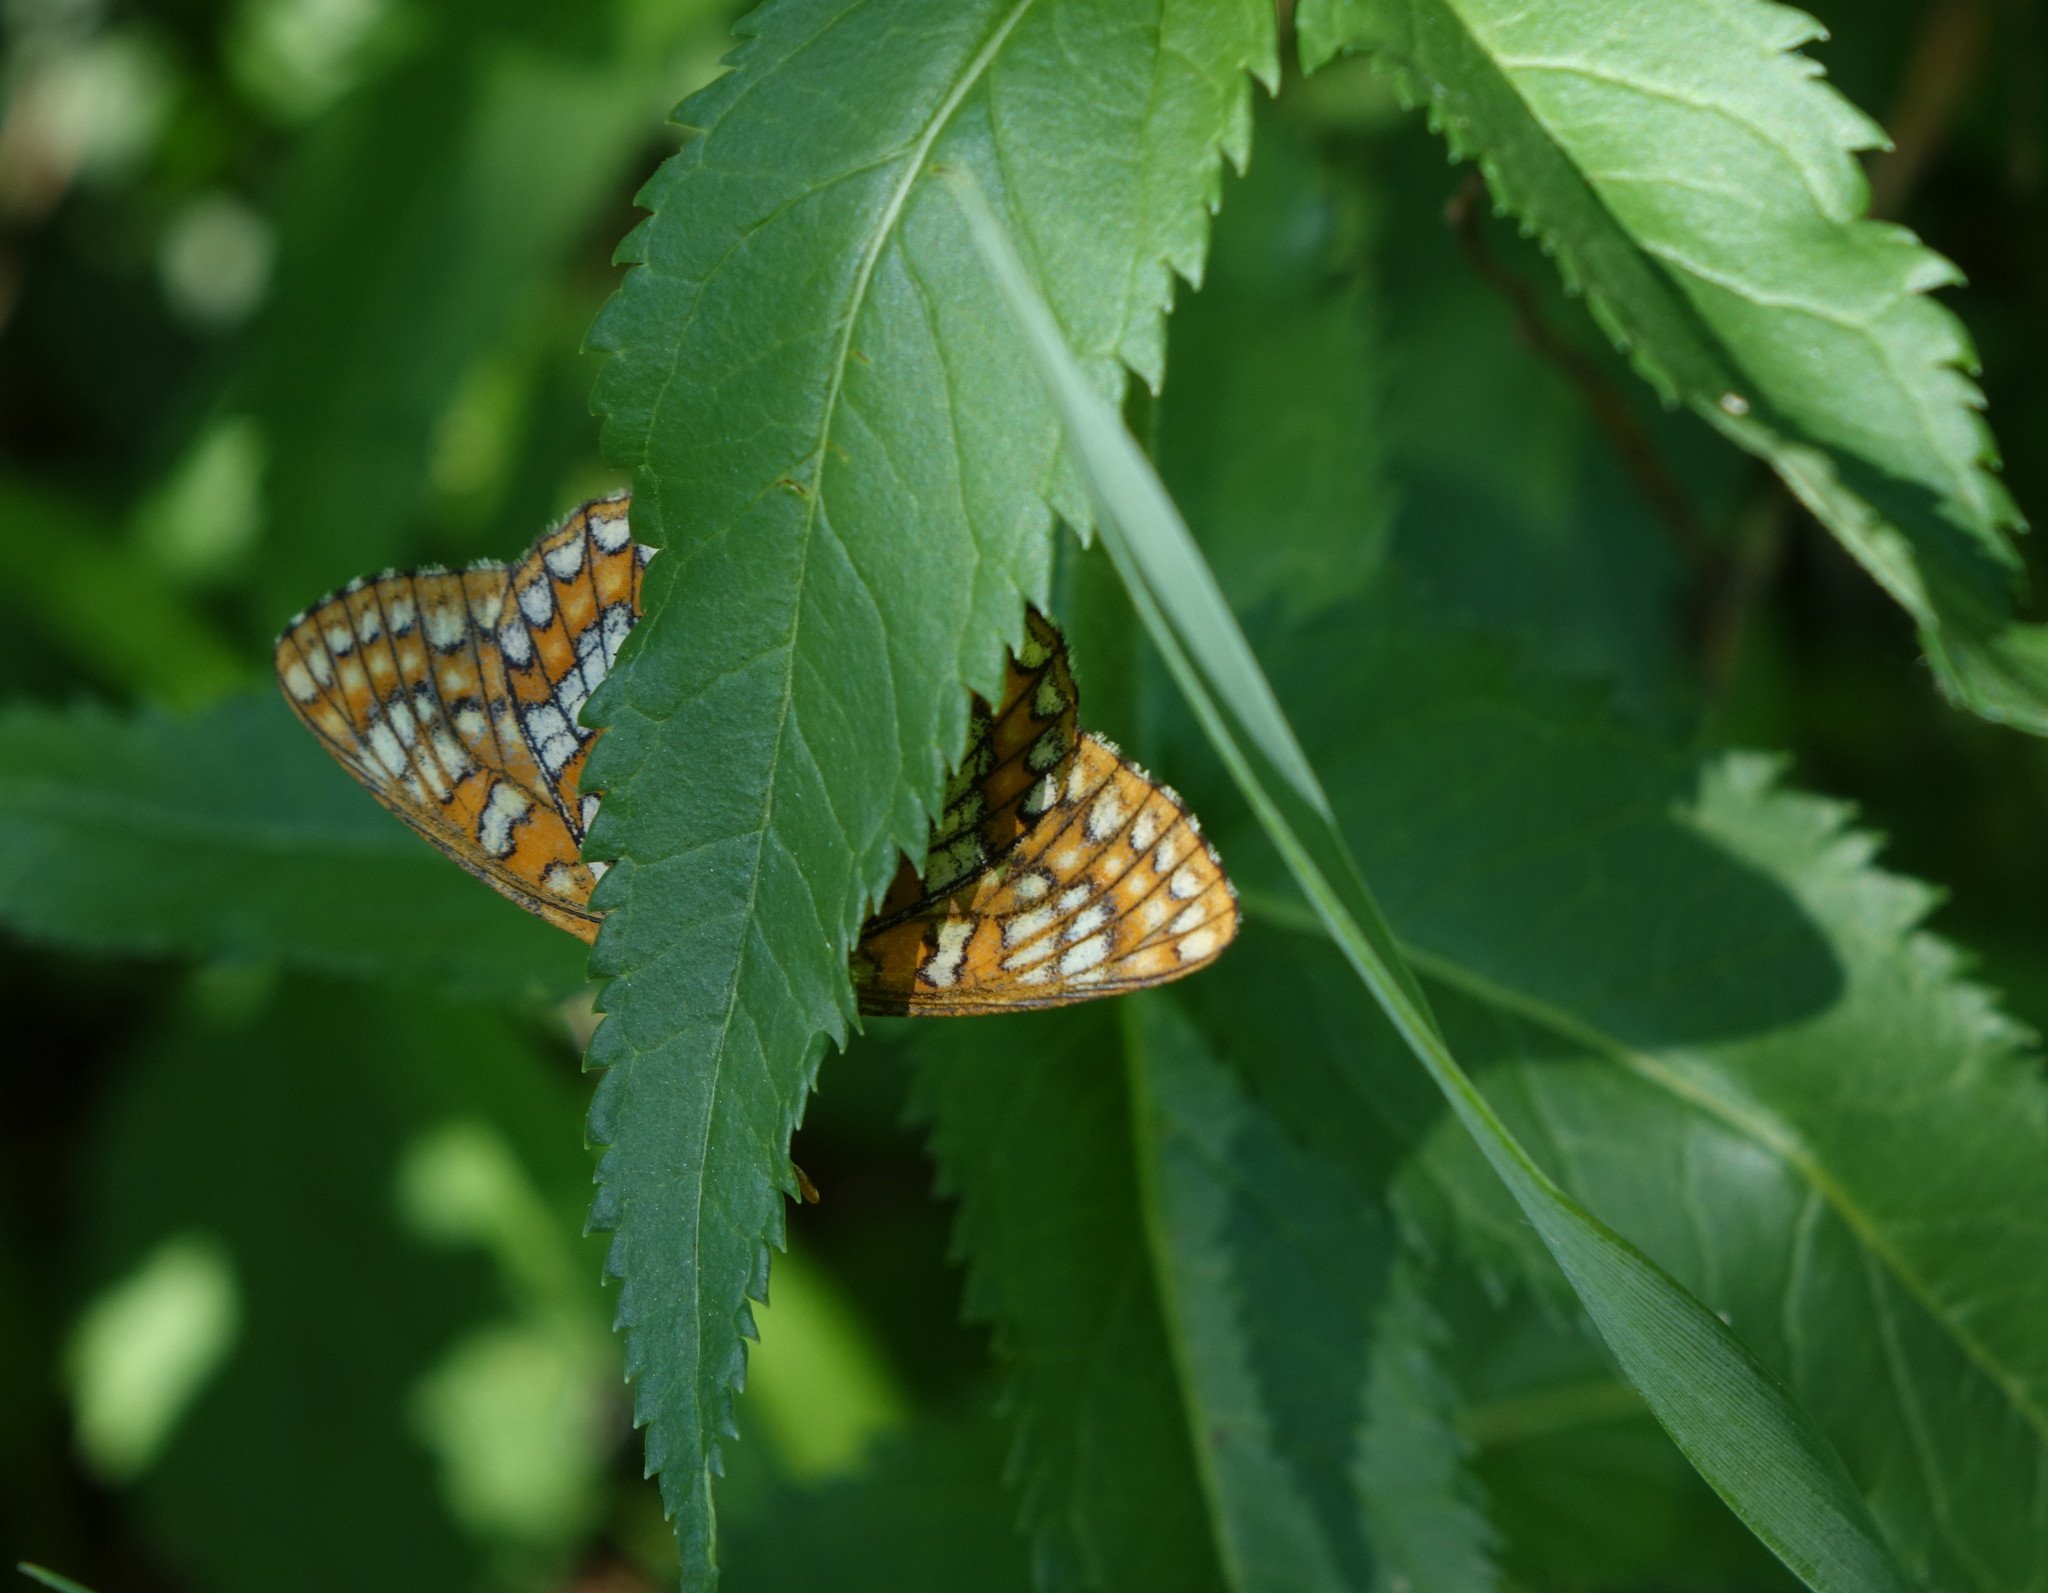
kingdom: Animalia
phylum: Arthropoda
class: Insecta
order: Lepidoptera
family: Nymphalidae
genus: Euphydryas
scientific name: Euphydryas maturna
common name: Scarce fritillary
